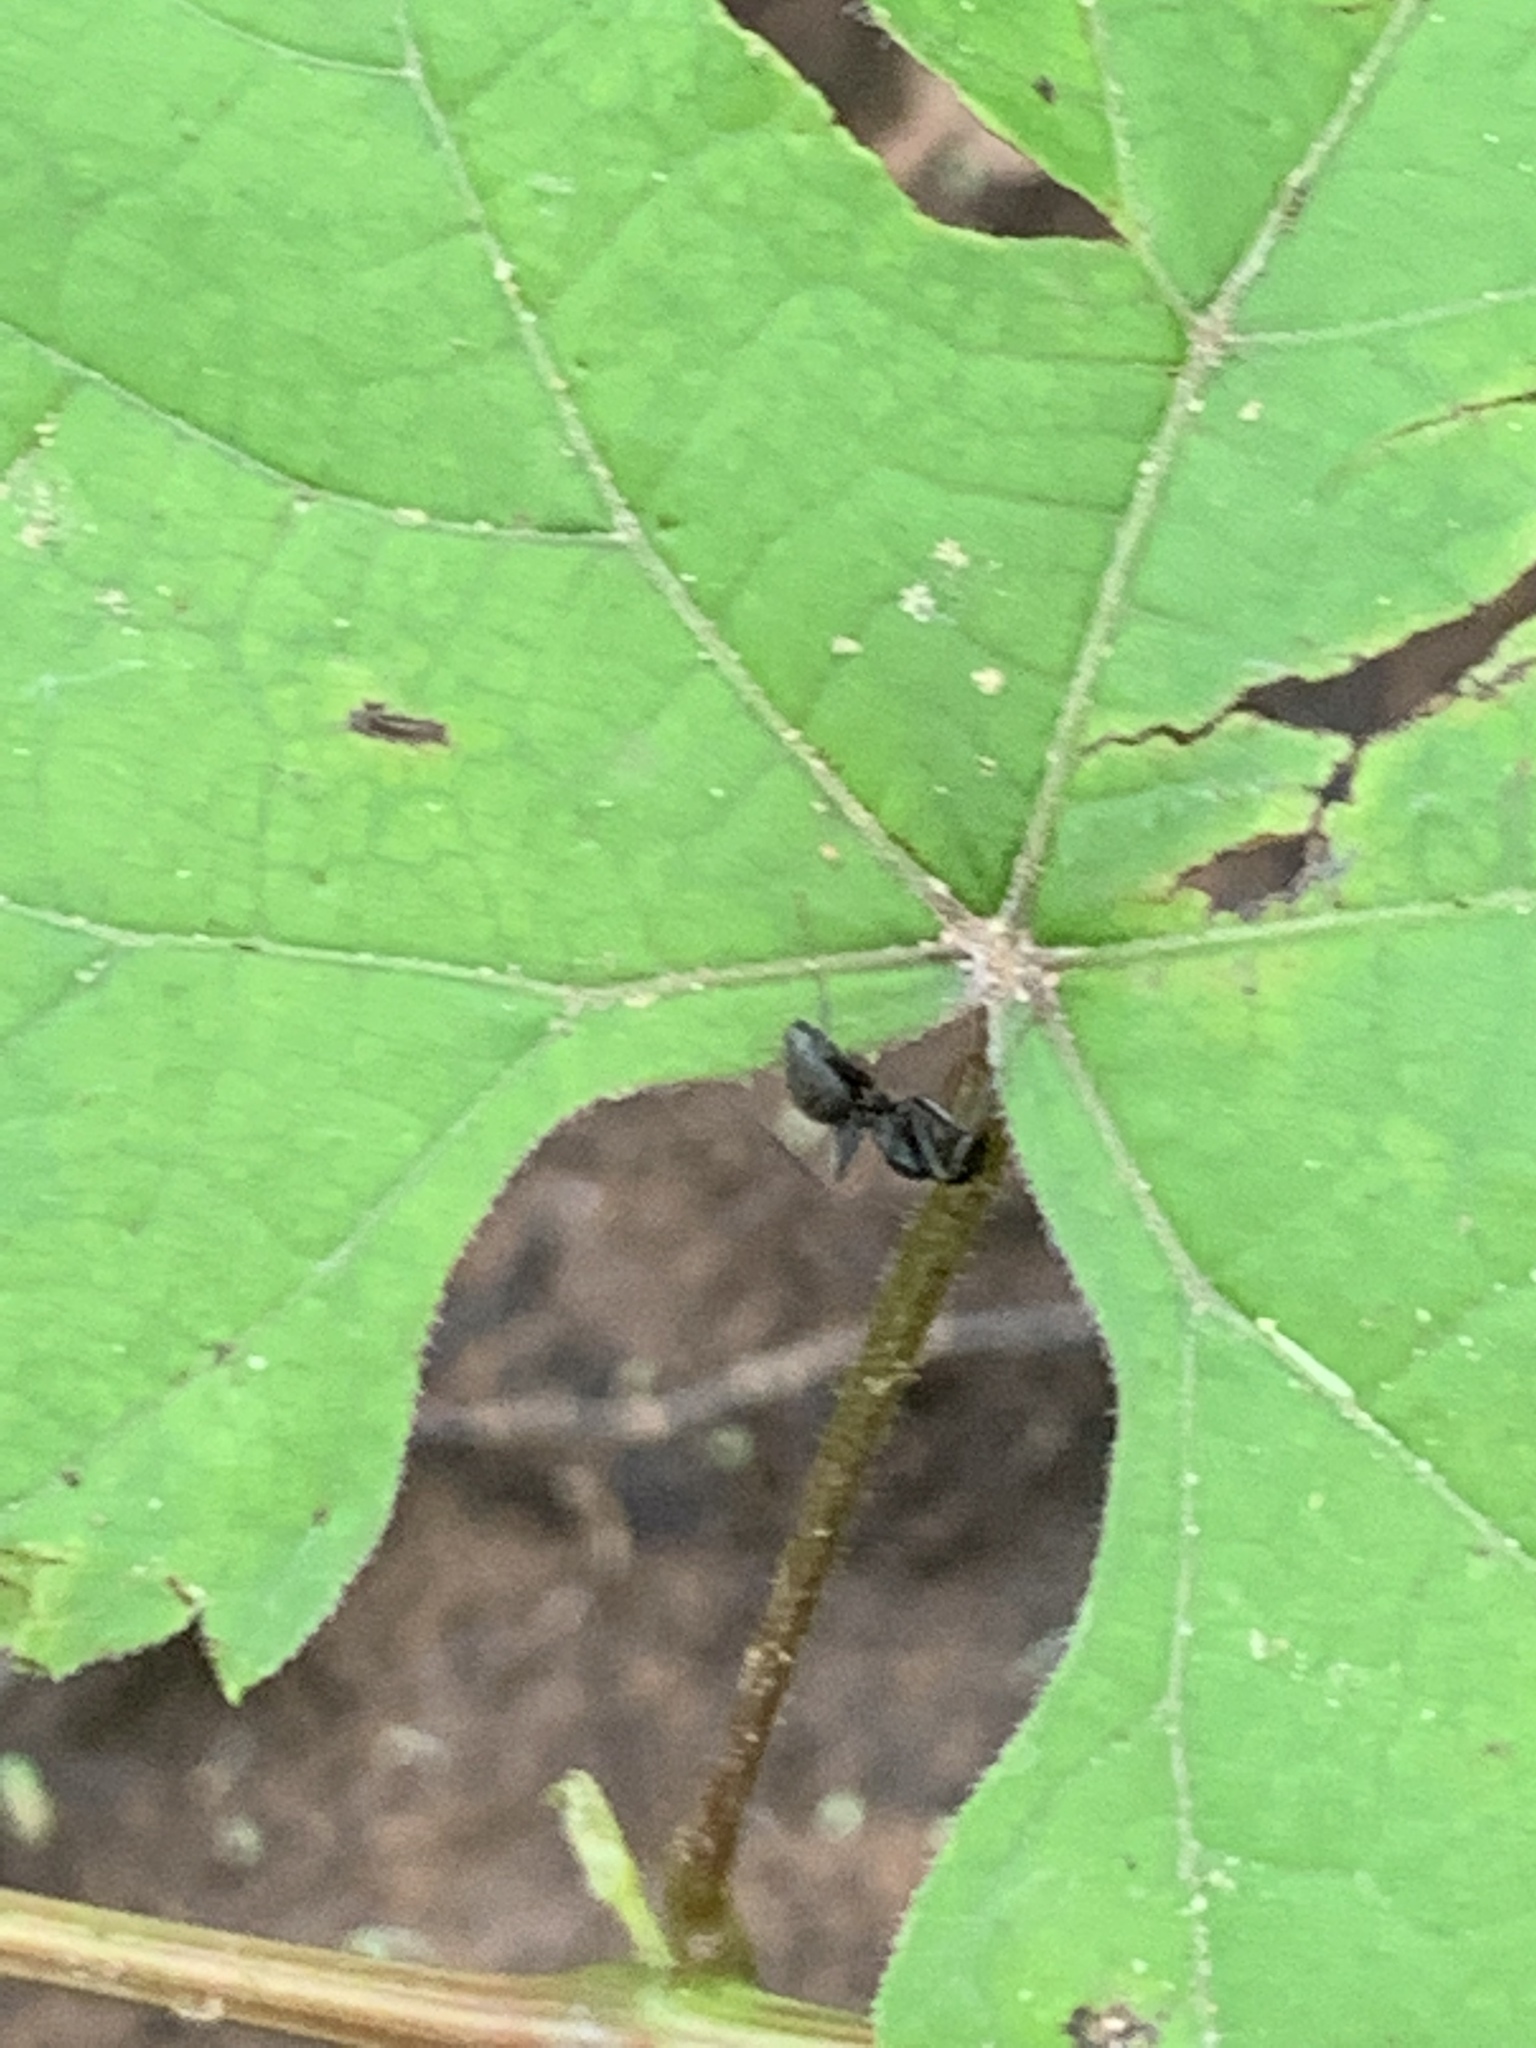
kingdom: Animalia
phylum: Arthropoda
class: Insecta
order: Hymenoptera
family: Formicidae
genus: Camponotus
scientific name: Camponotus pennsylvanicus
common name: Black carpenter ant
